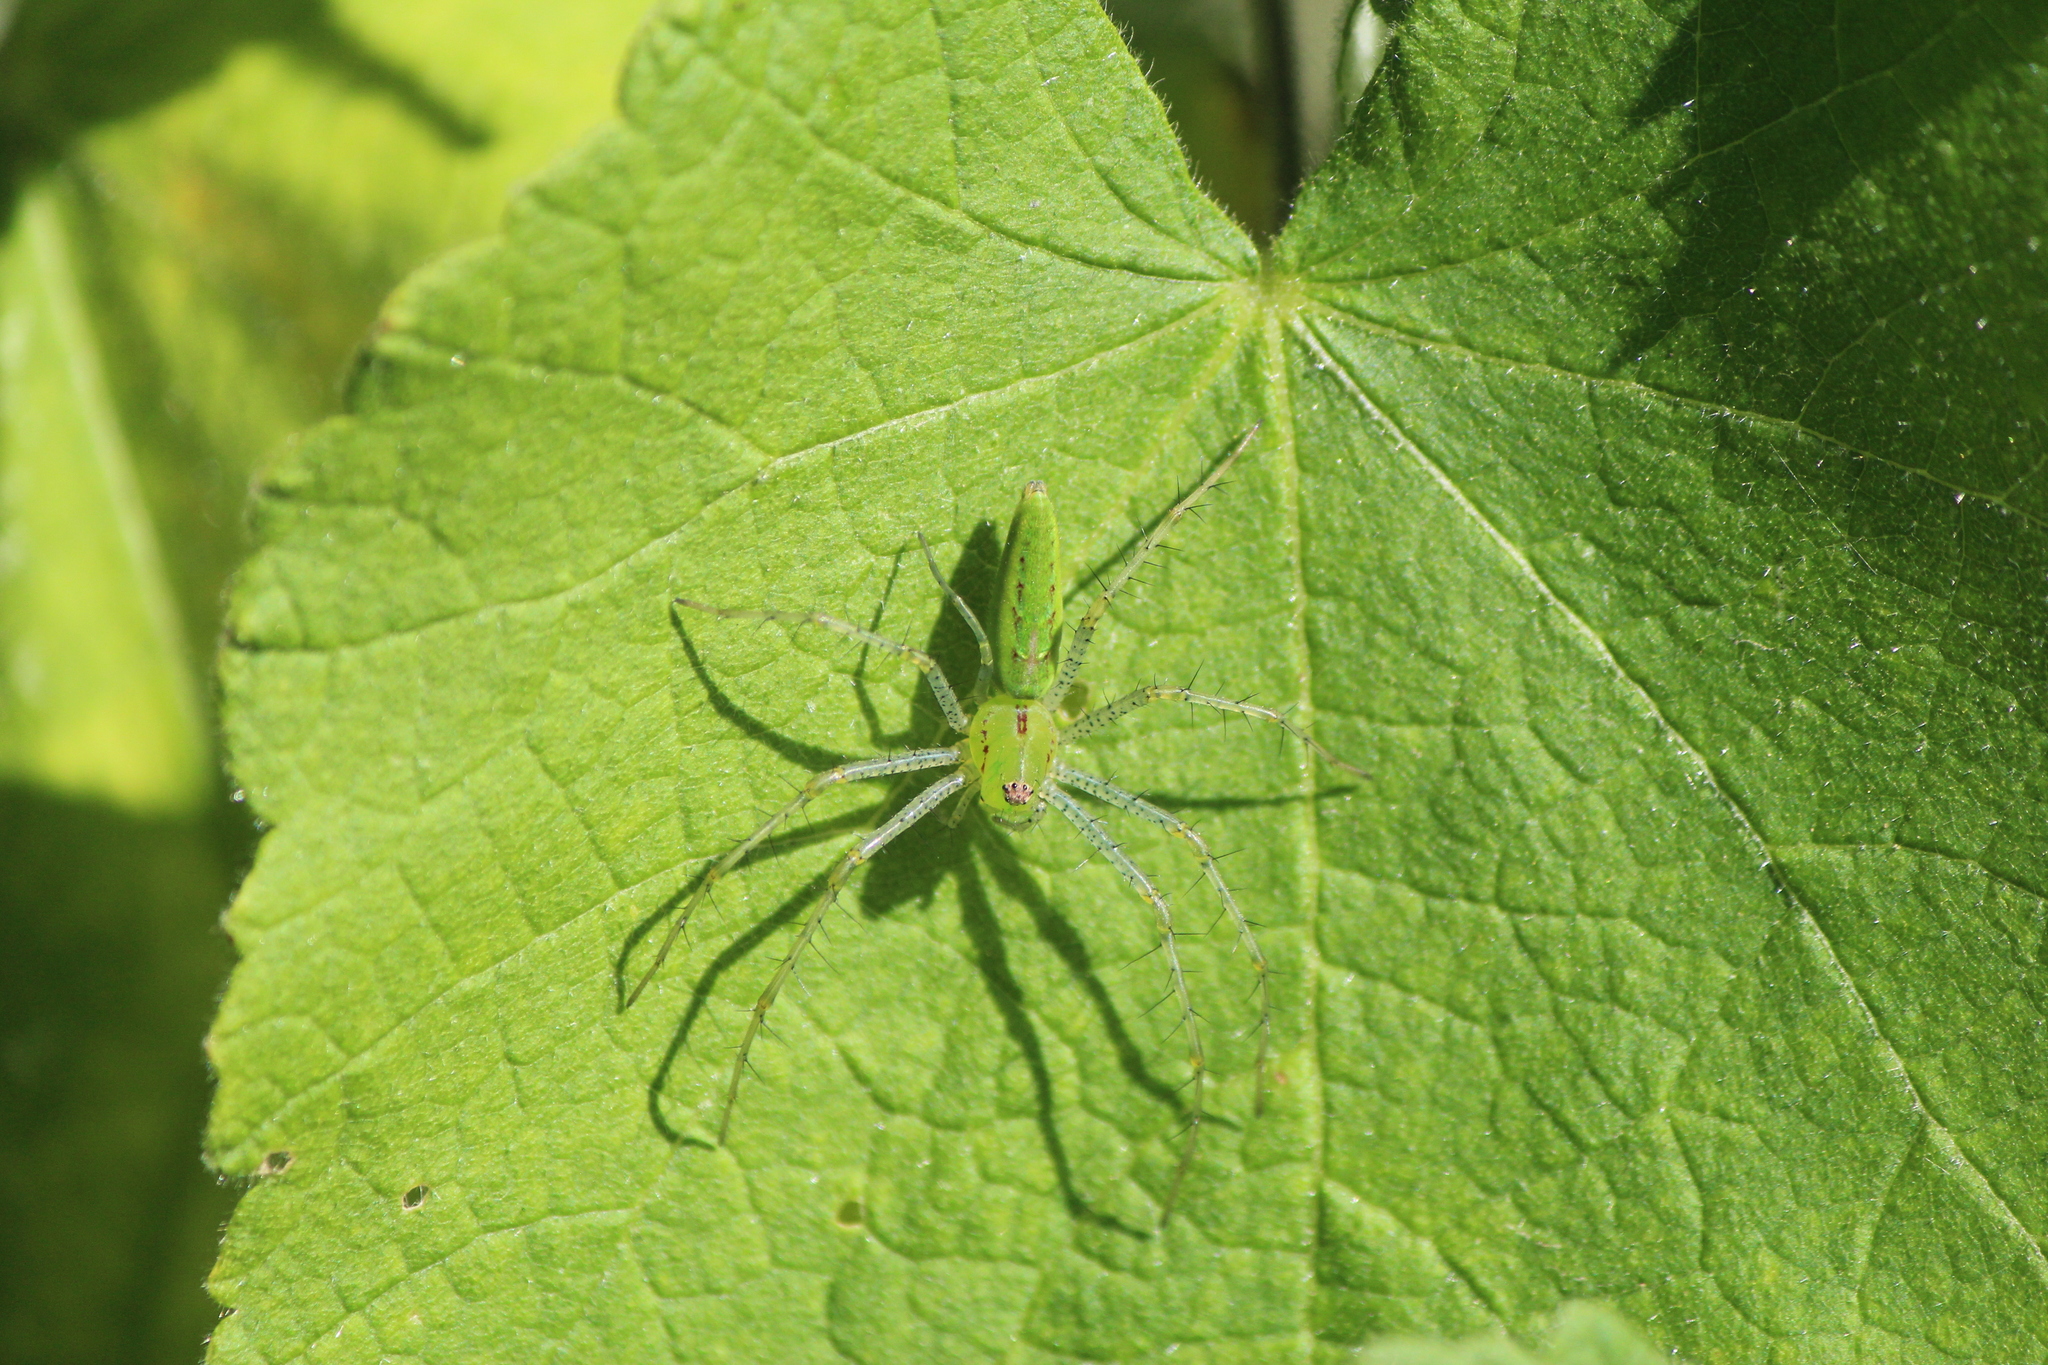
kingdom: Animalia
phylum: Arthropoda
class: Arachnida
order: Araneae
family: Oxyopidae
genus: Peucetia
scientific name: Peucetia viridans
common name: Lynx spiders
